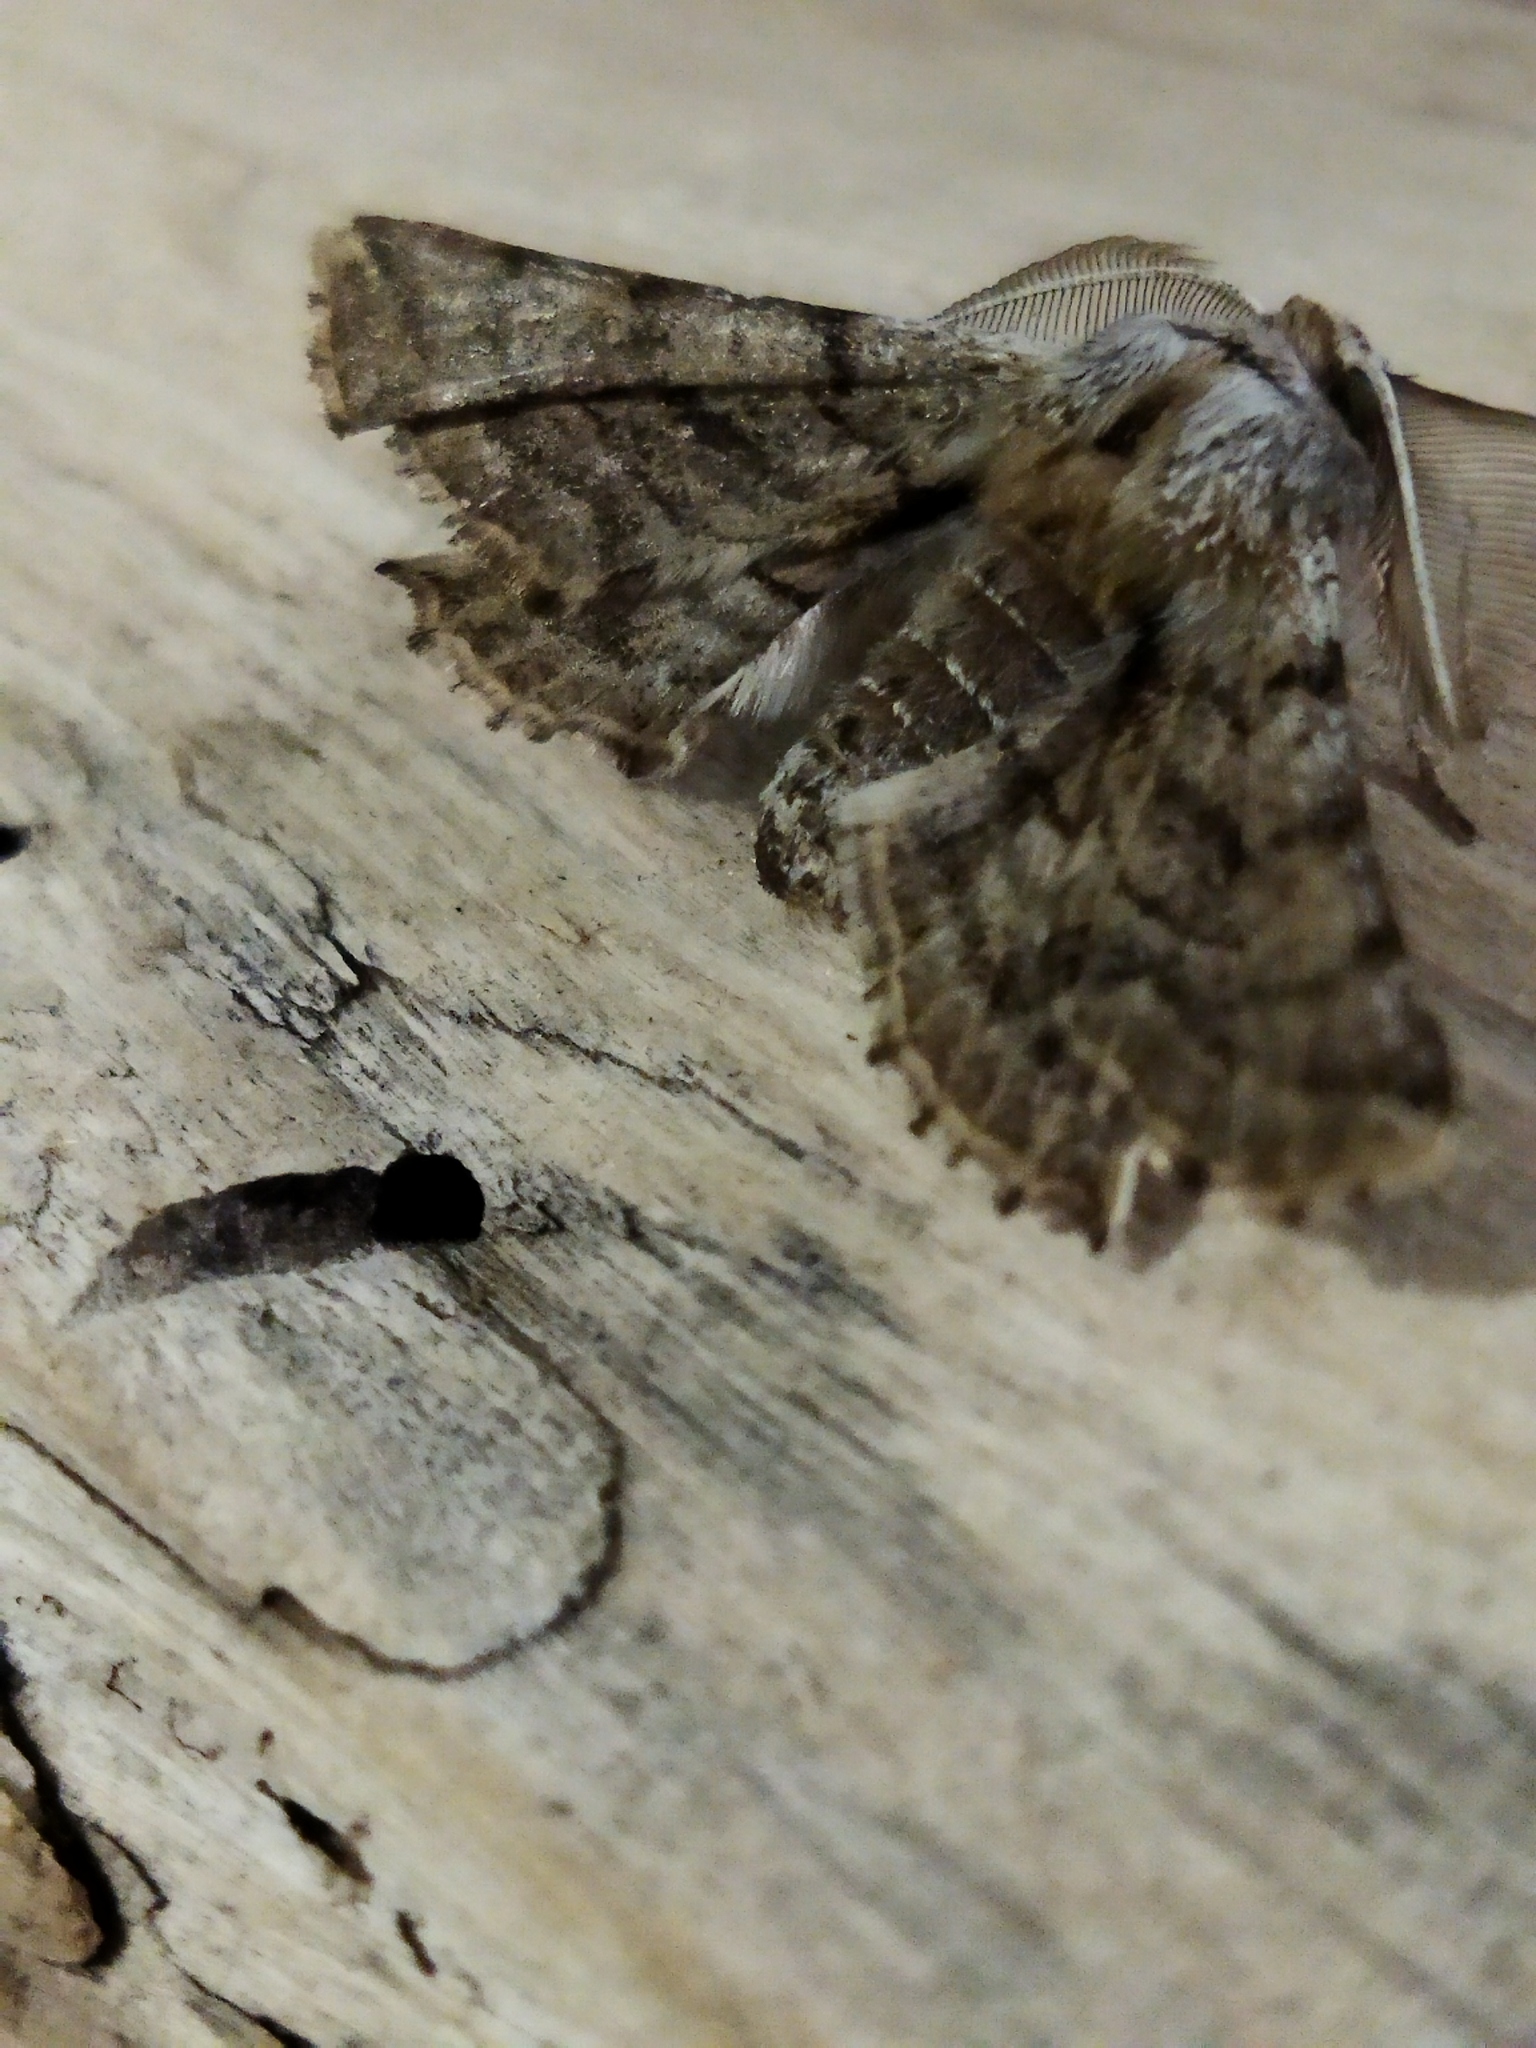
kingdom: Animalia
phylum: Arthropoda
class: Insecta
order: Lepidoptera
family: Geometridae
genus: Apochima
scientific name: Apochima flabellaria
